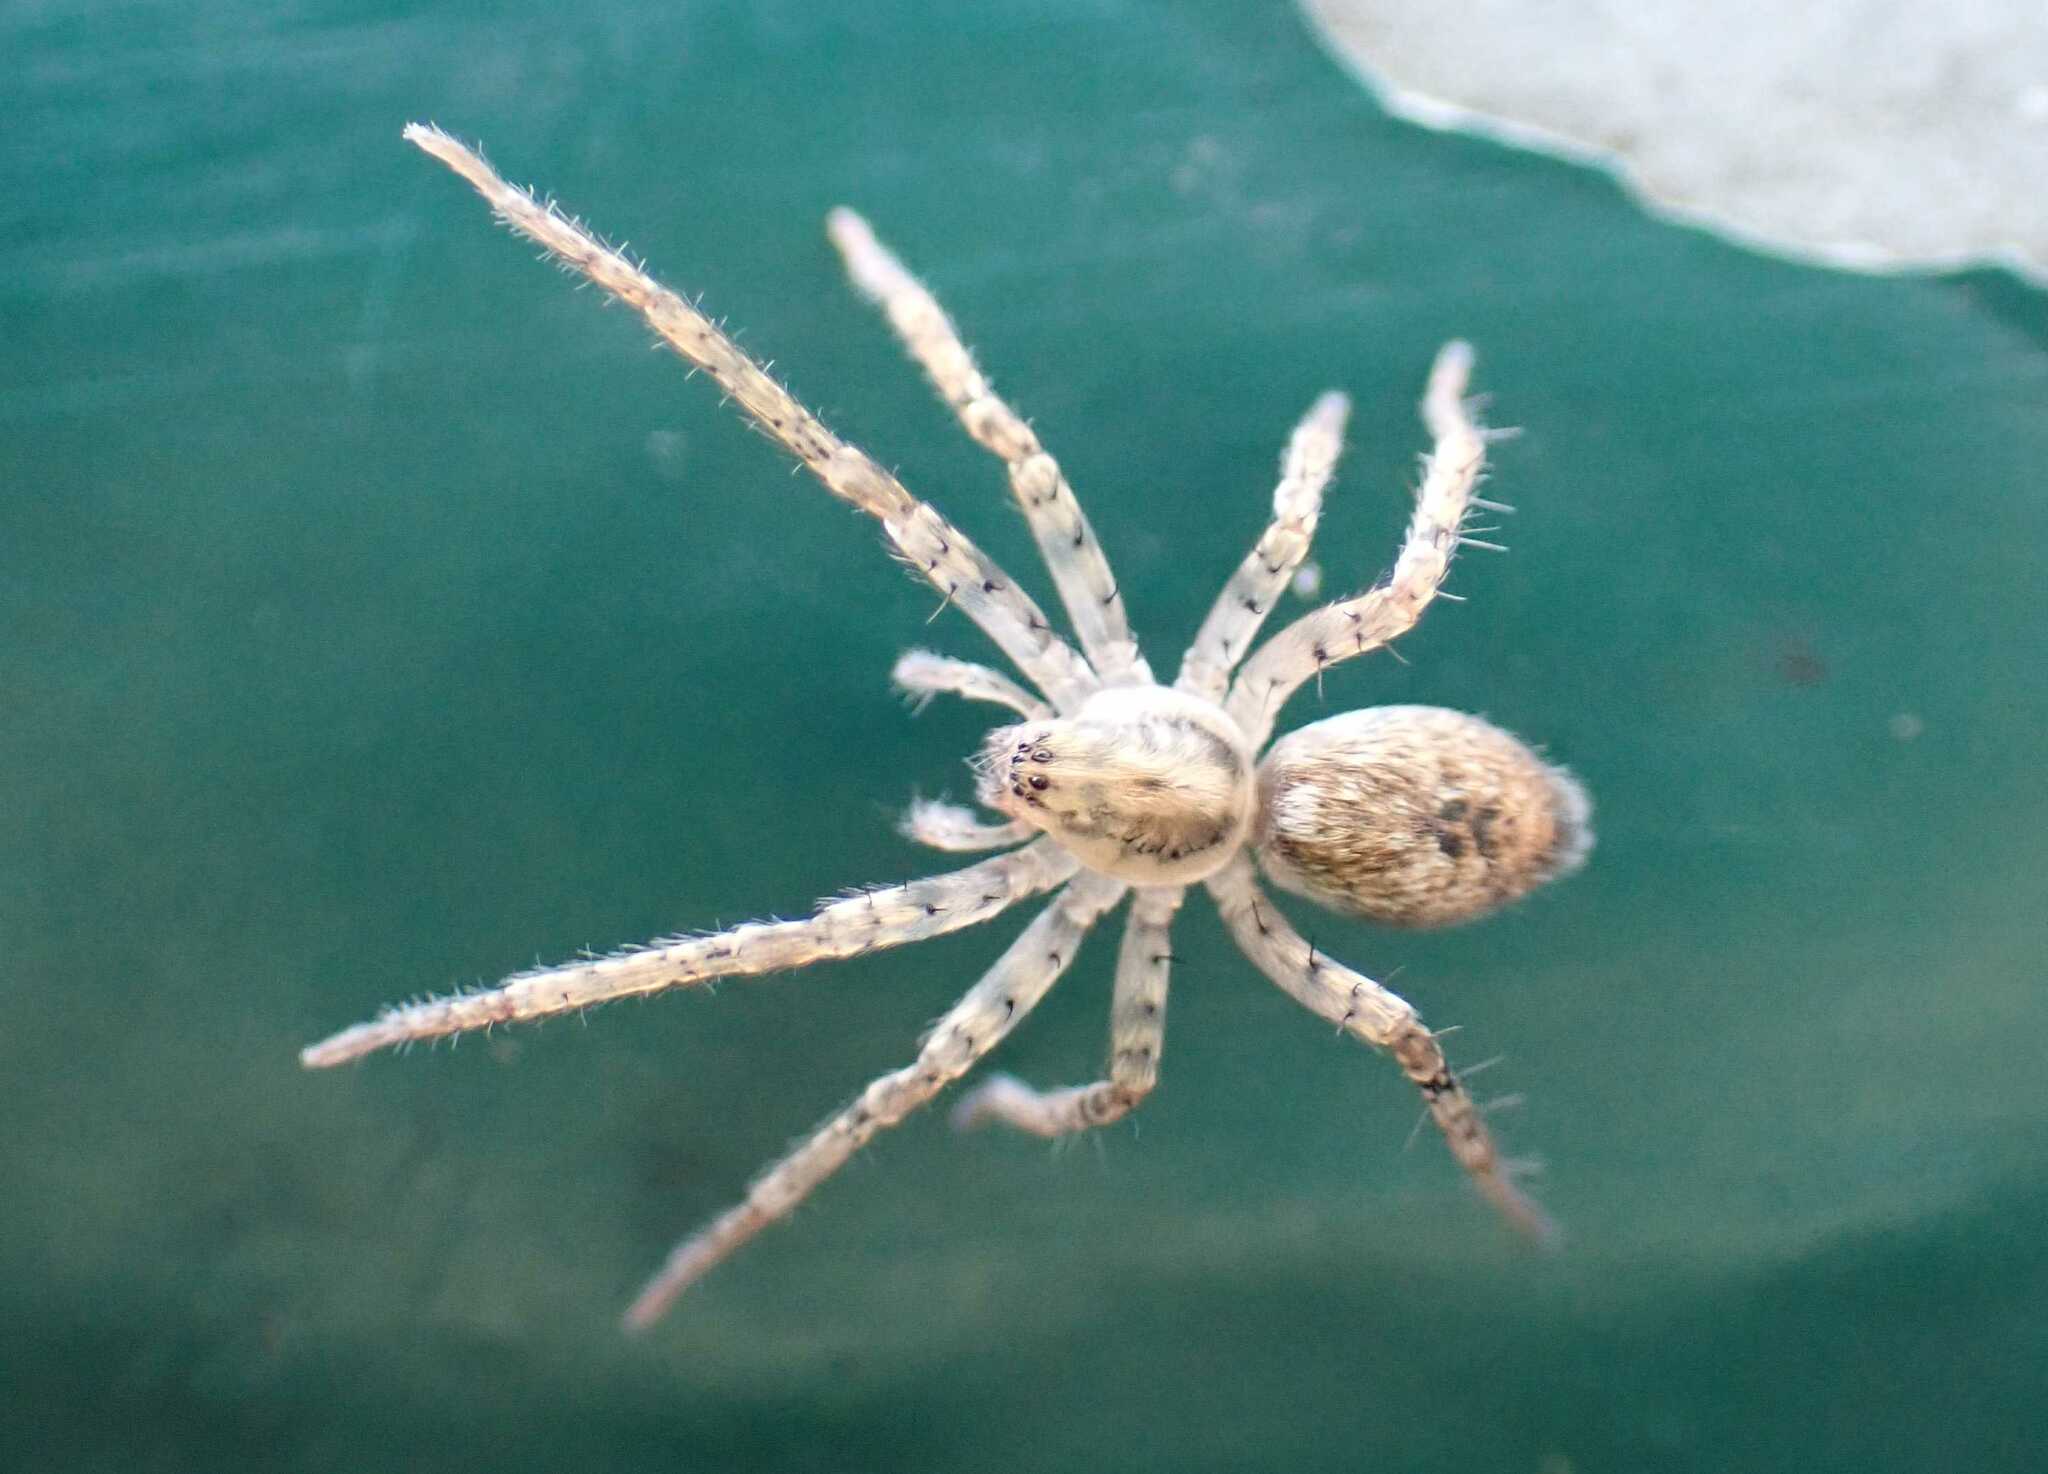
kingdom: Animalia
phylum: Arthropoda
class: Arachnida
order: Araneae
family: Anyphaenidae
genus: Anyphaena
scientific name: Anyphaena accentuata
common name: Buzzing spider
